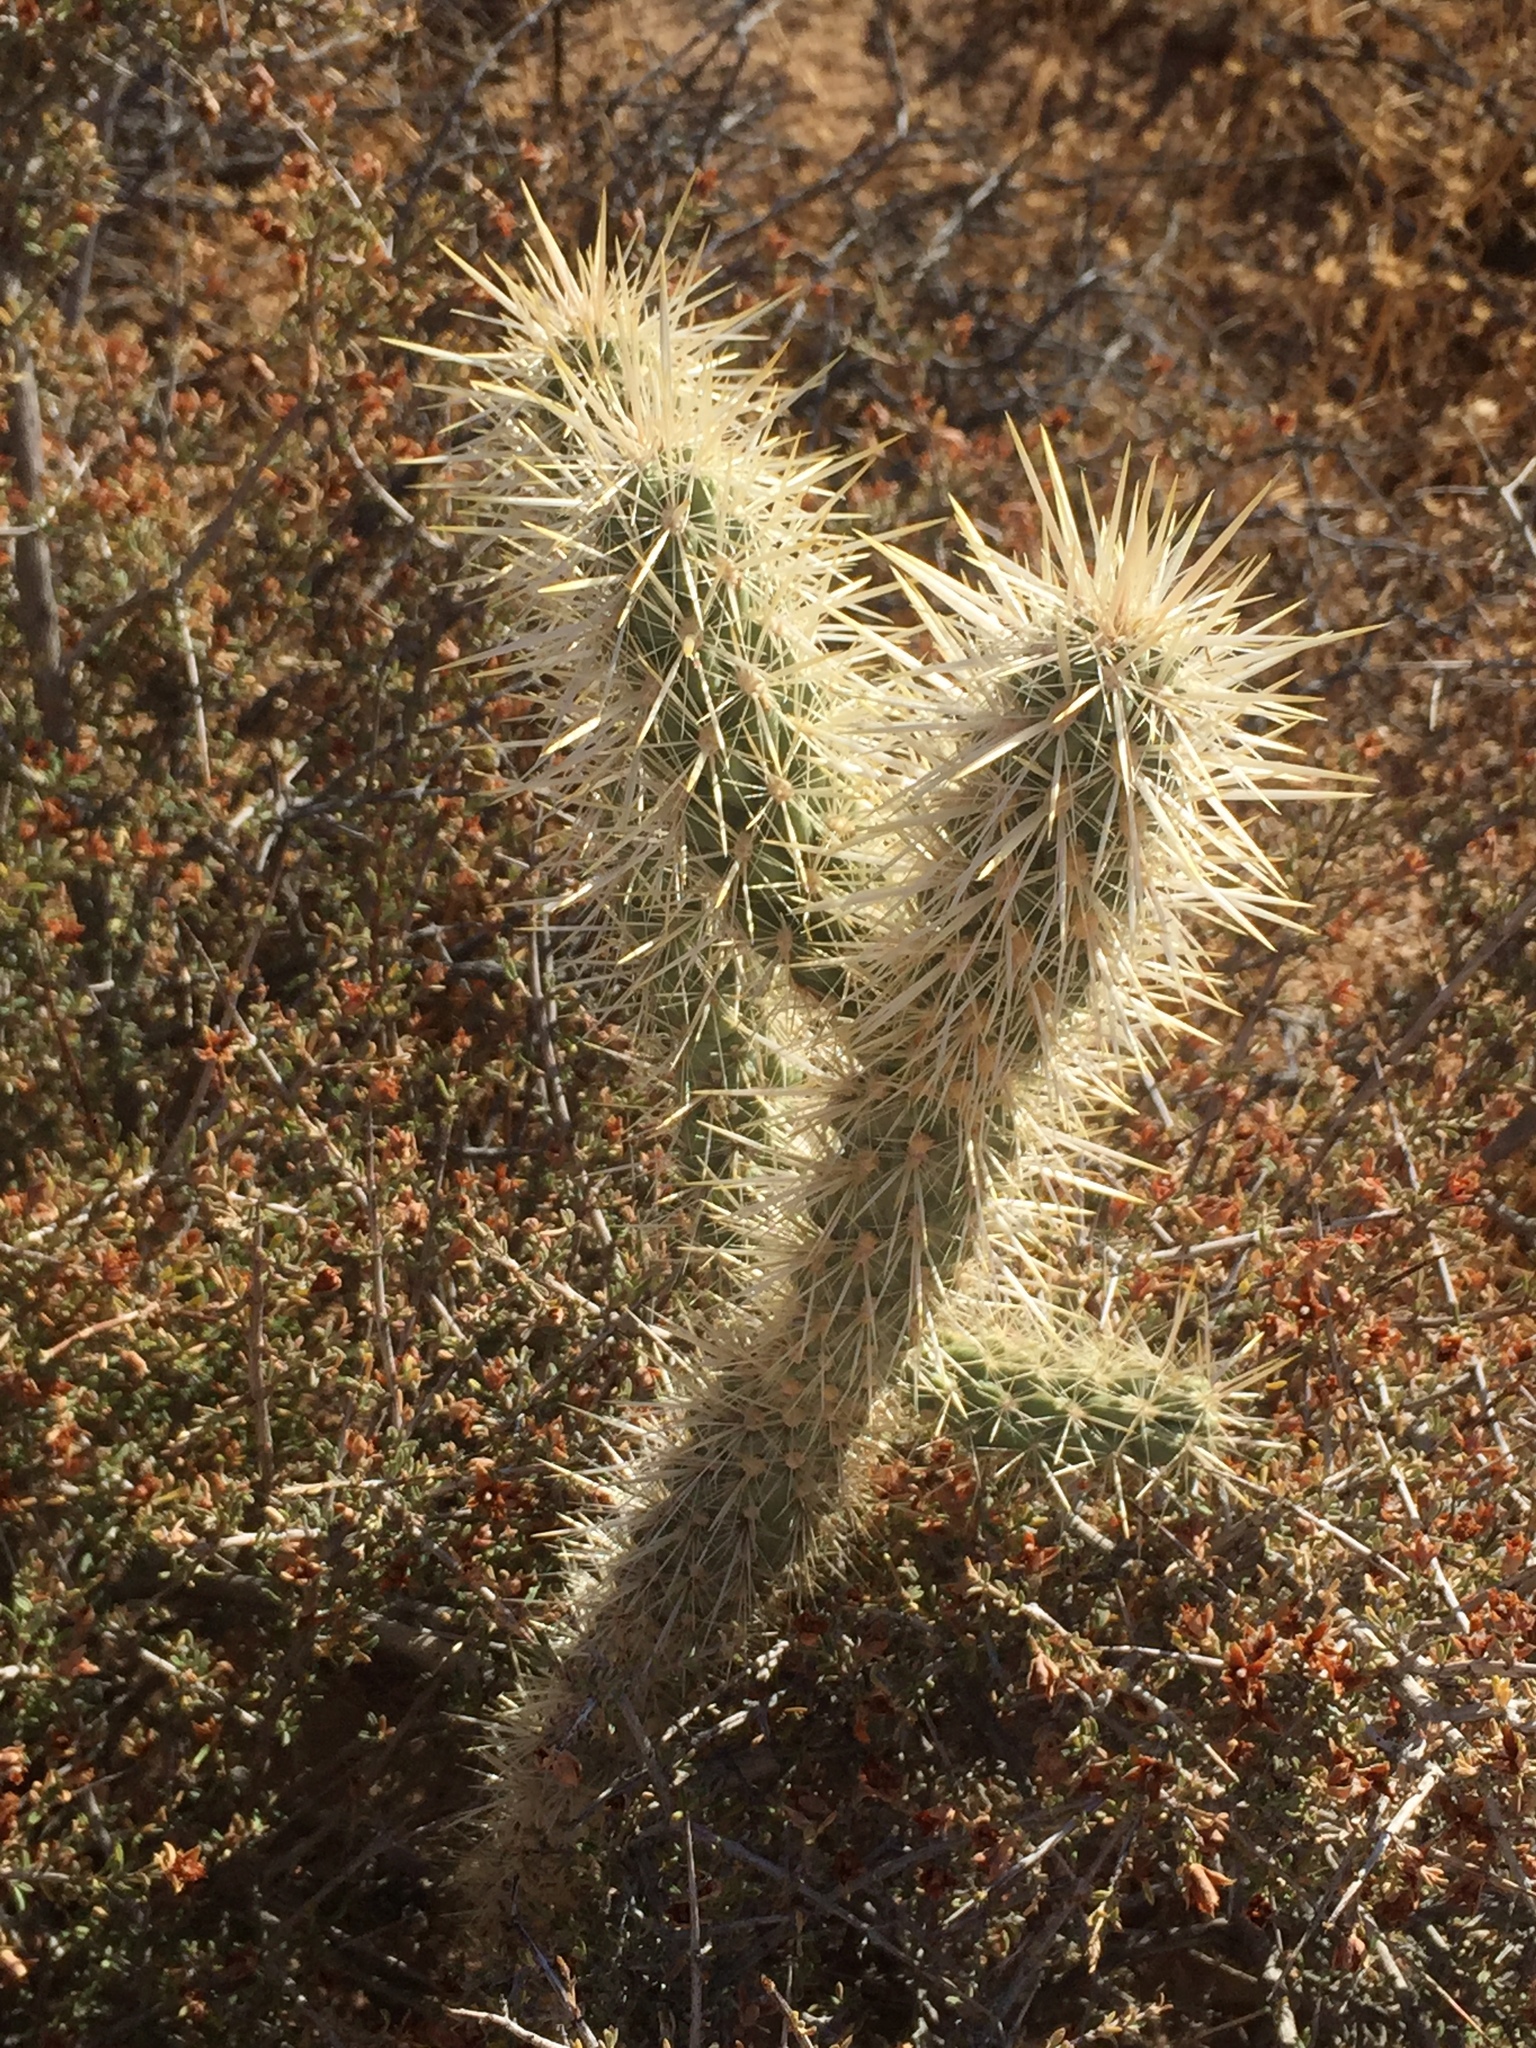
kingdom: Plantae
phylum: Tracheophyta
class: Magnoliopsida
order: Caryophyllales
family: Cactaceae
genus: Cylindropuntia
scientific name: Cylindropuntia echinocarpa
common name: Ground cholla
